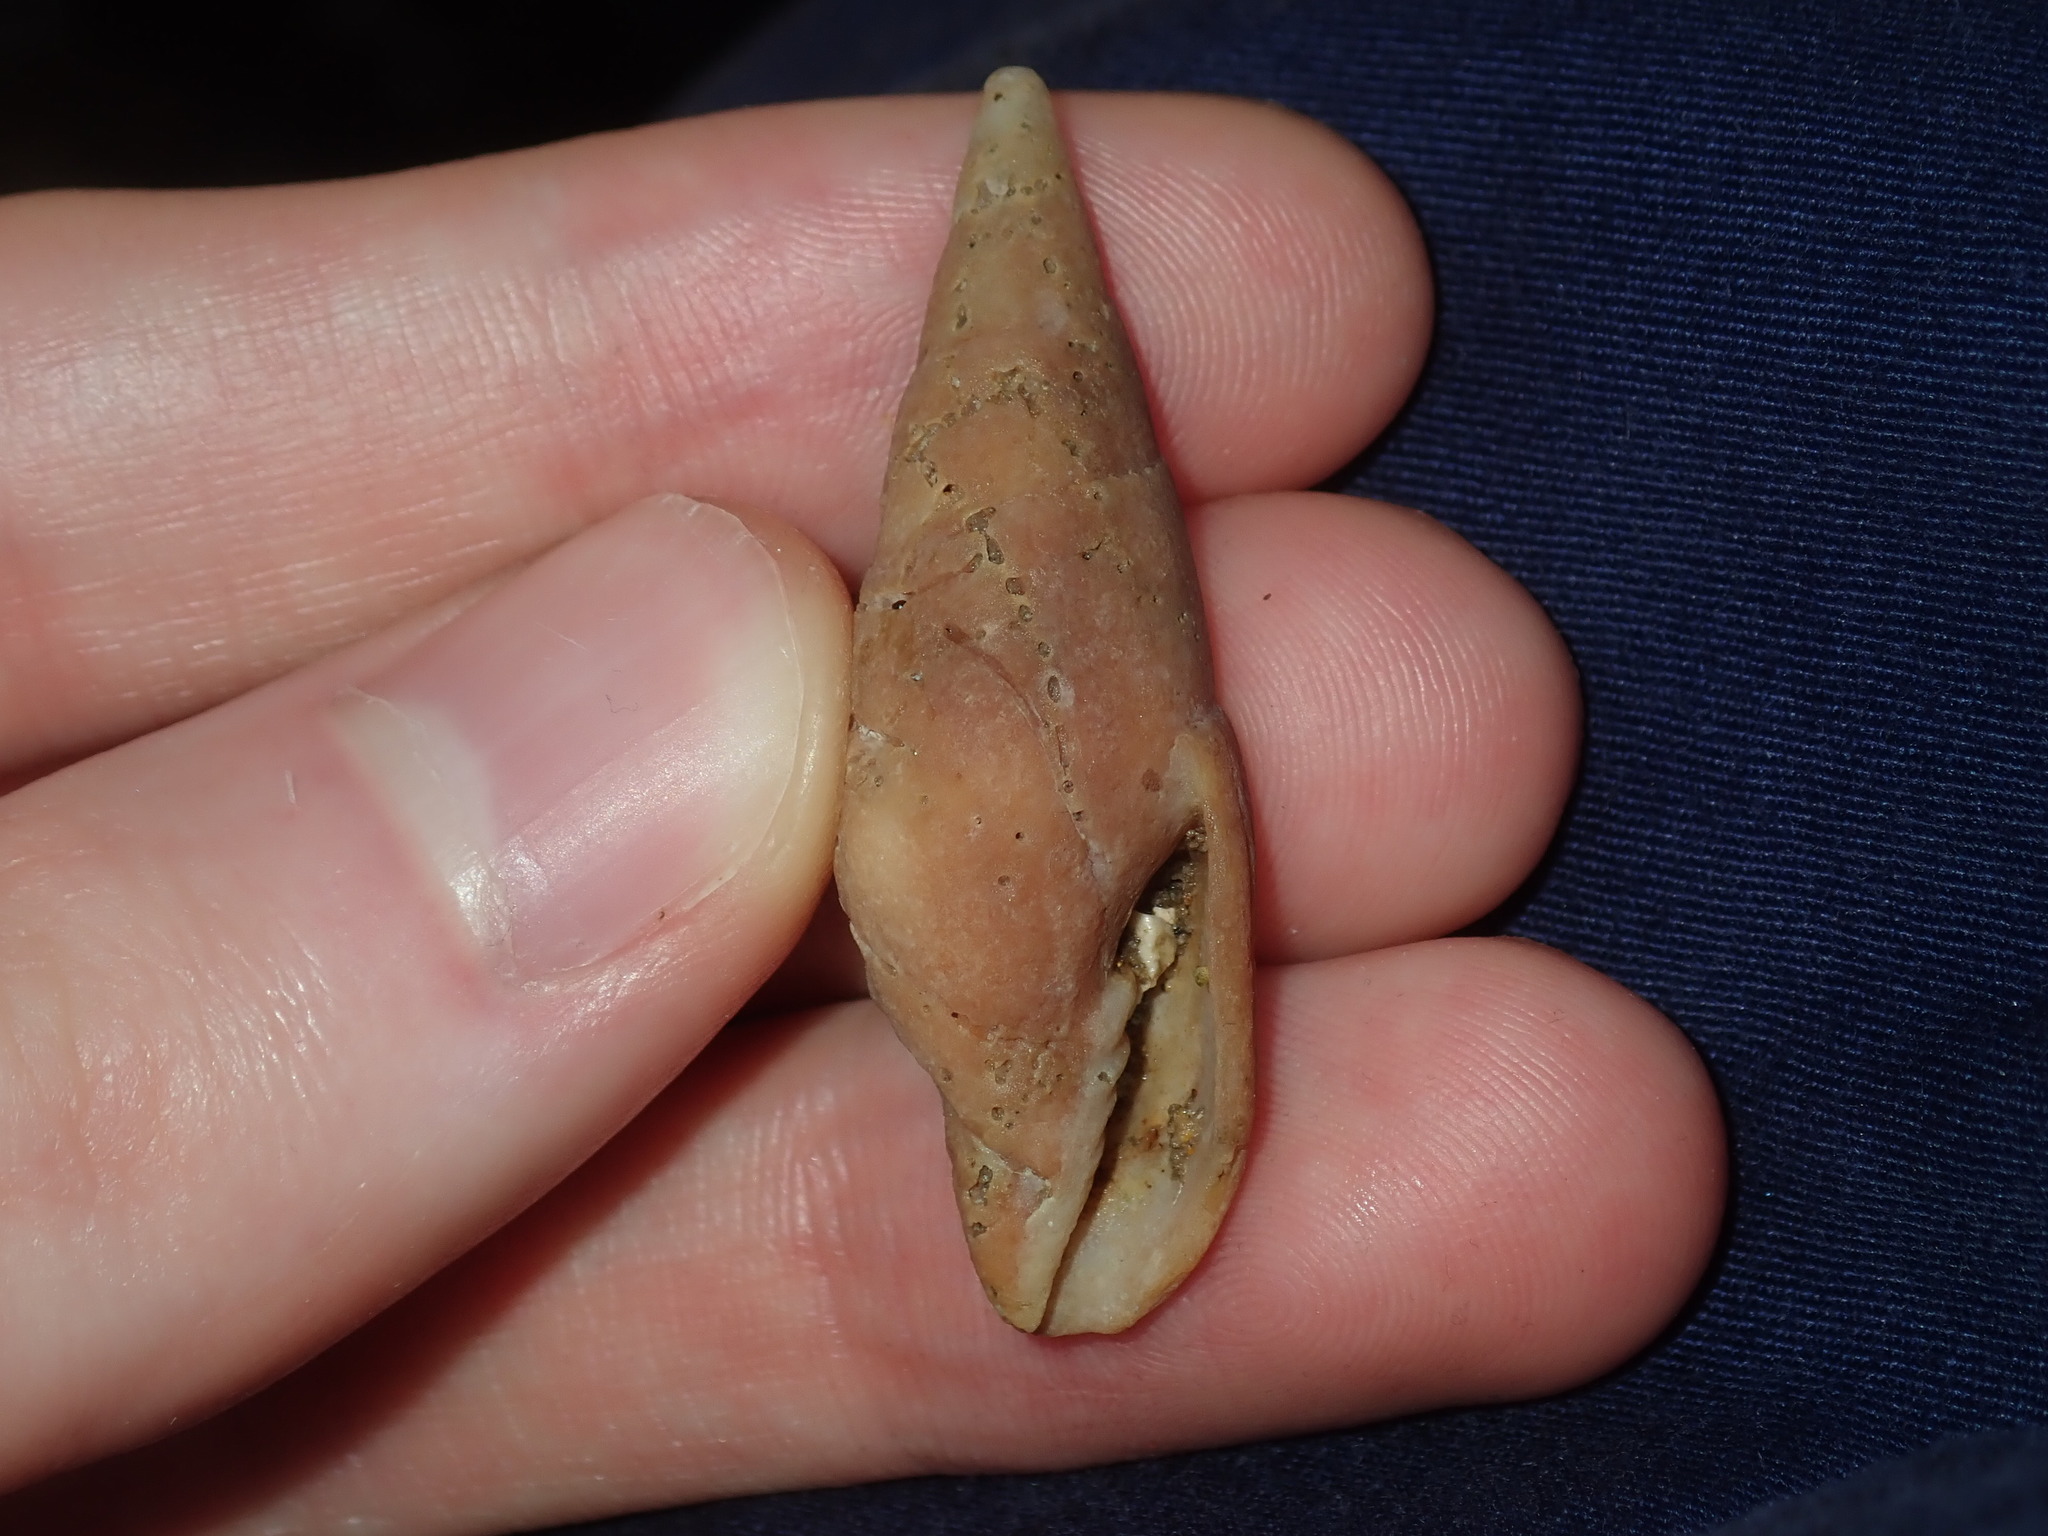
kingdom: Animalia
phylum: Mollusca
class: Gastropoda
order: Neogastropoda
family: Mitridae
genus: Isara
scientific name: Isara carbonaria
